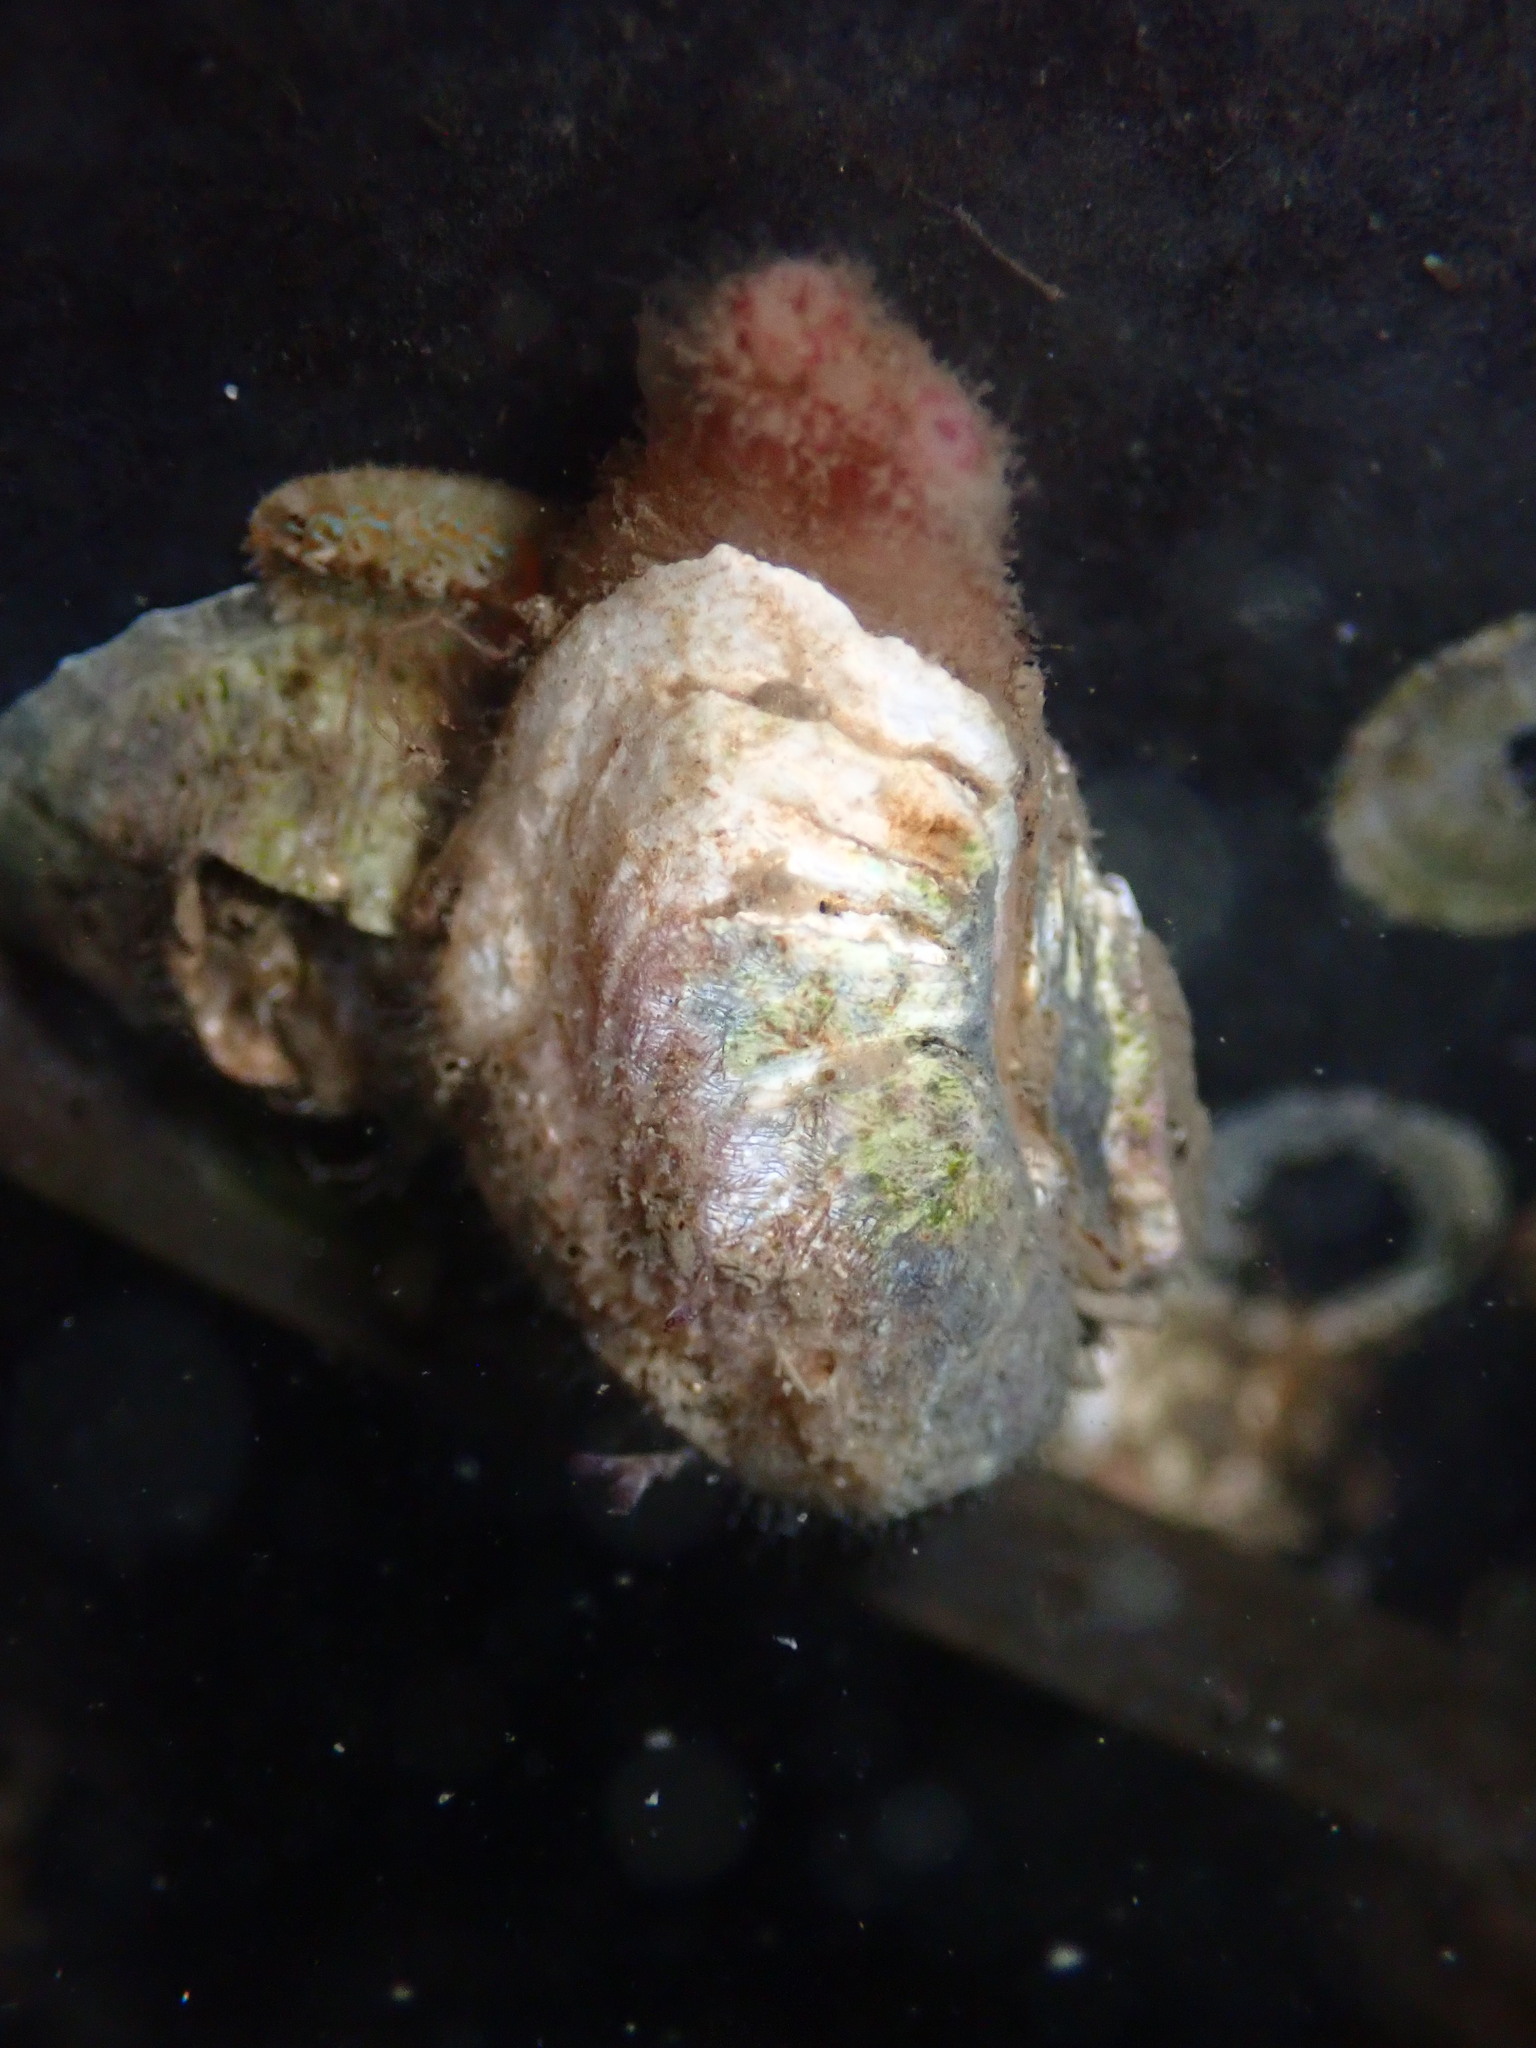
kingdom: Animalia
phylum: Mollusca
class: Bivalvia
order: Adapedonta
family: Hiatellidae
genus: Hiatella
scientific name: Hiatella arctica
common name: Arctic hiatella
